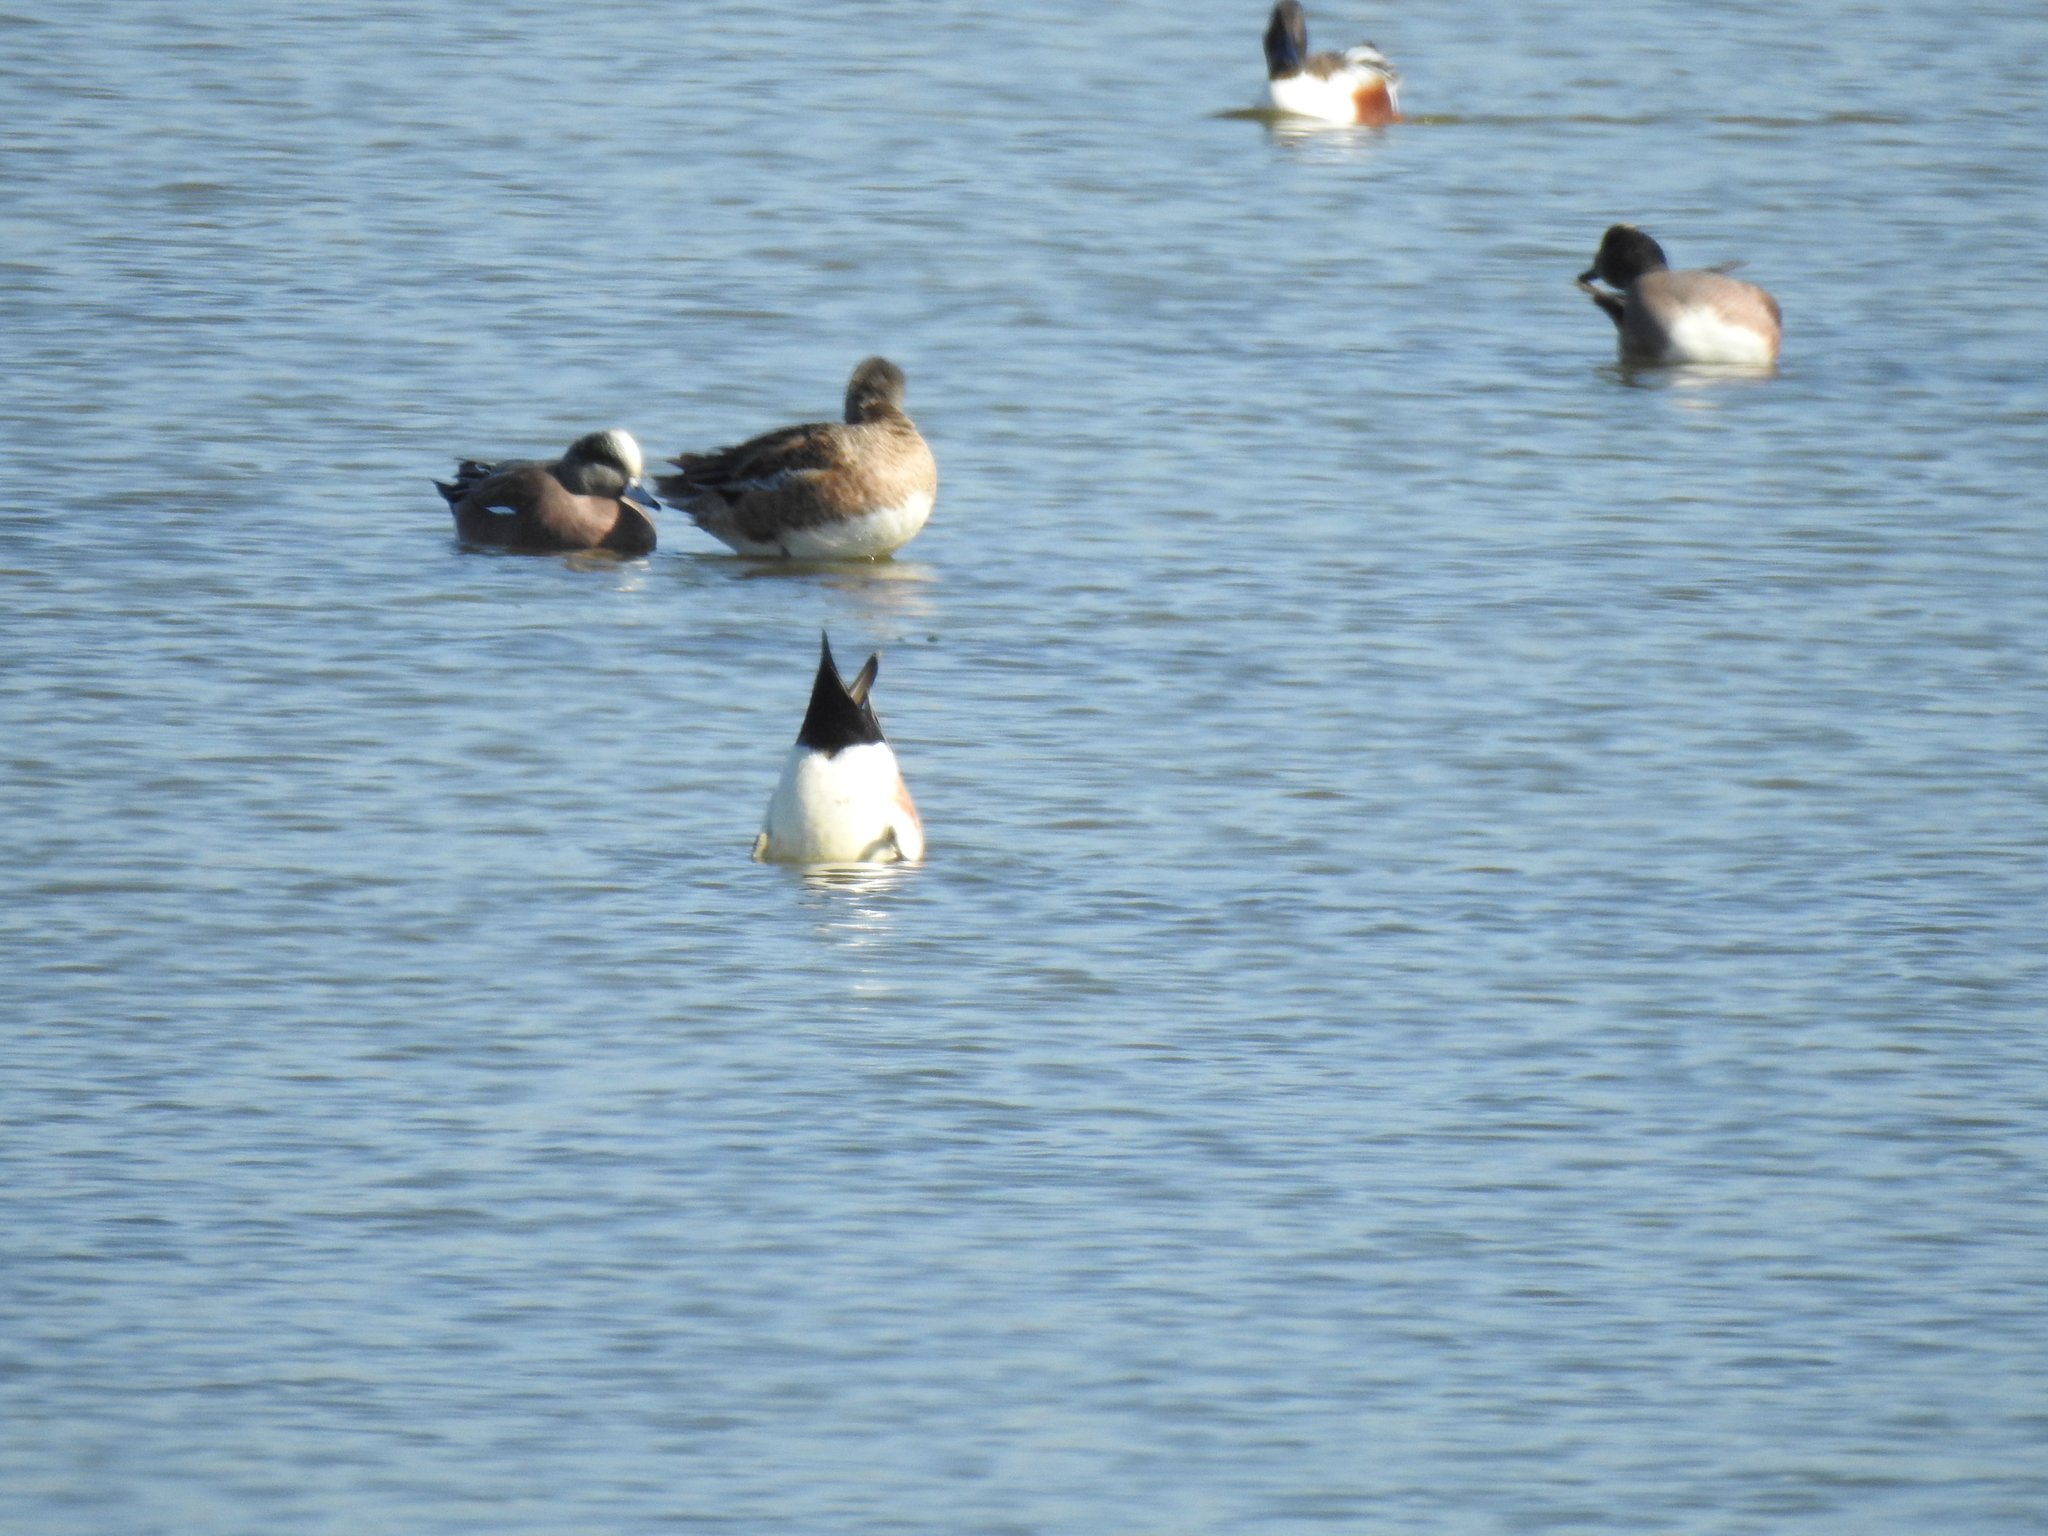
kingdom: Animalia
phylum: Chordata
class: Aves
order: Anseriformes
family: Anatidae
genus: Mareca
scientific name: Mareca americana
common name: American wigeon
